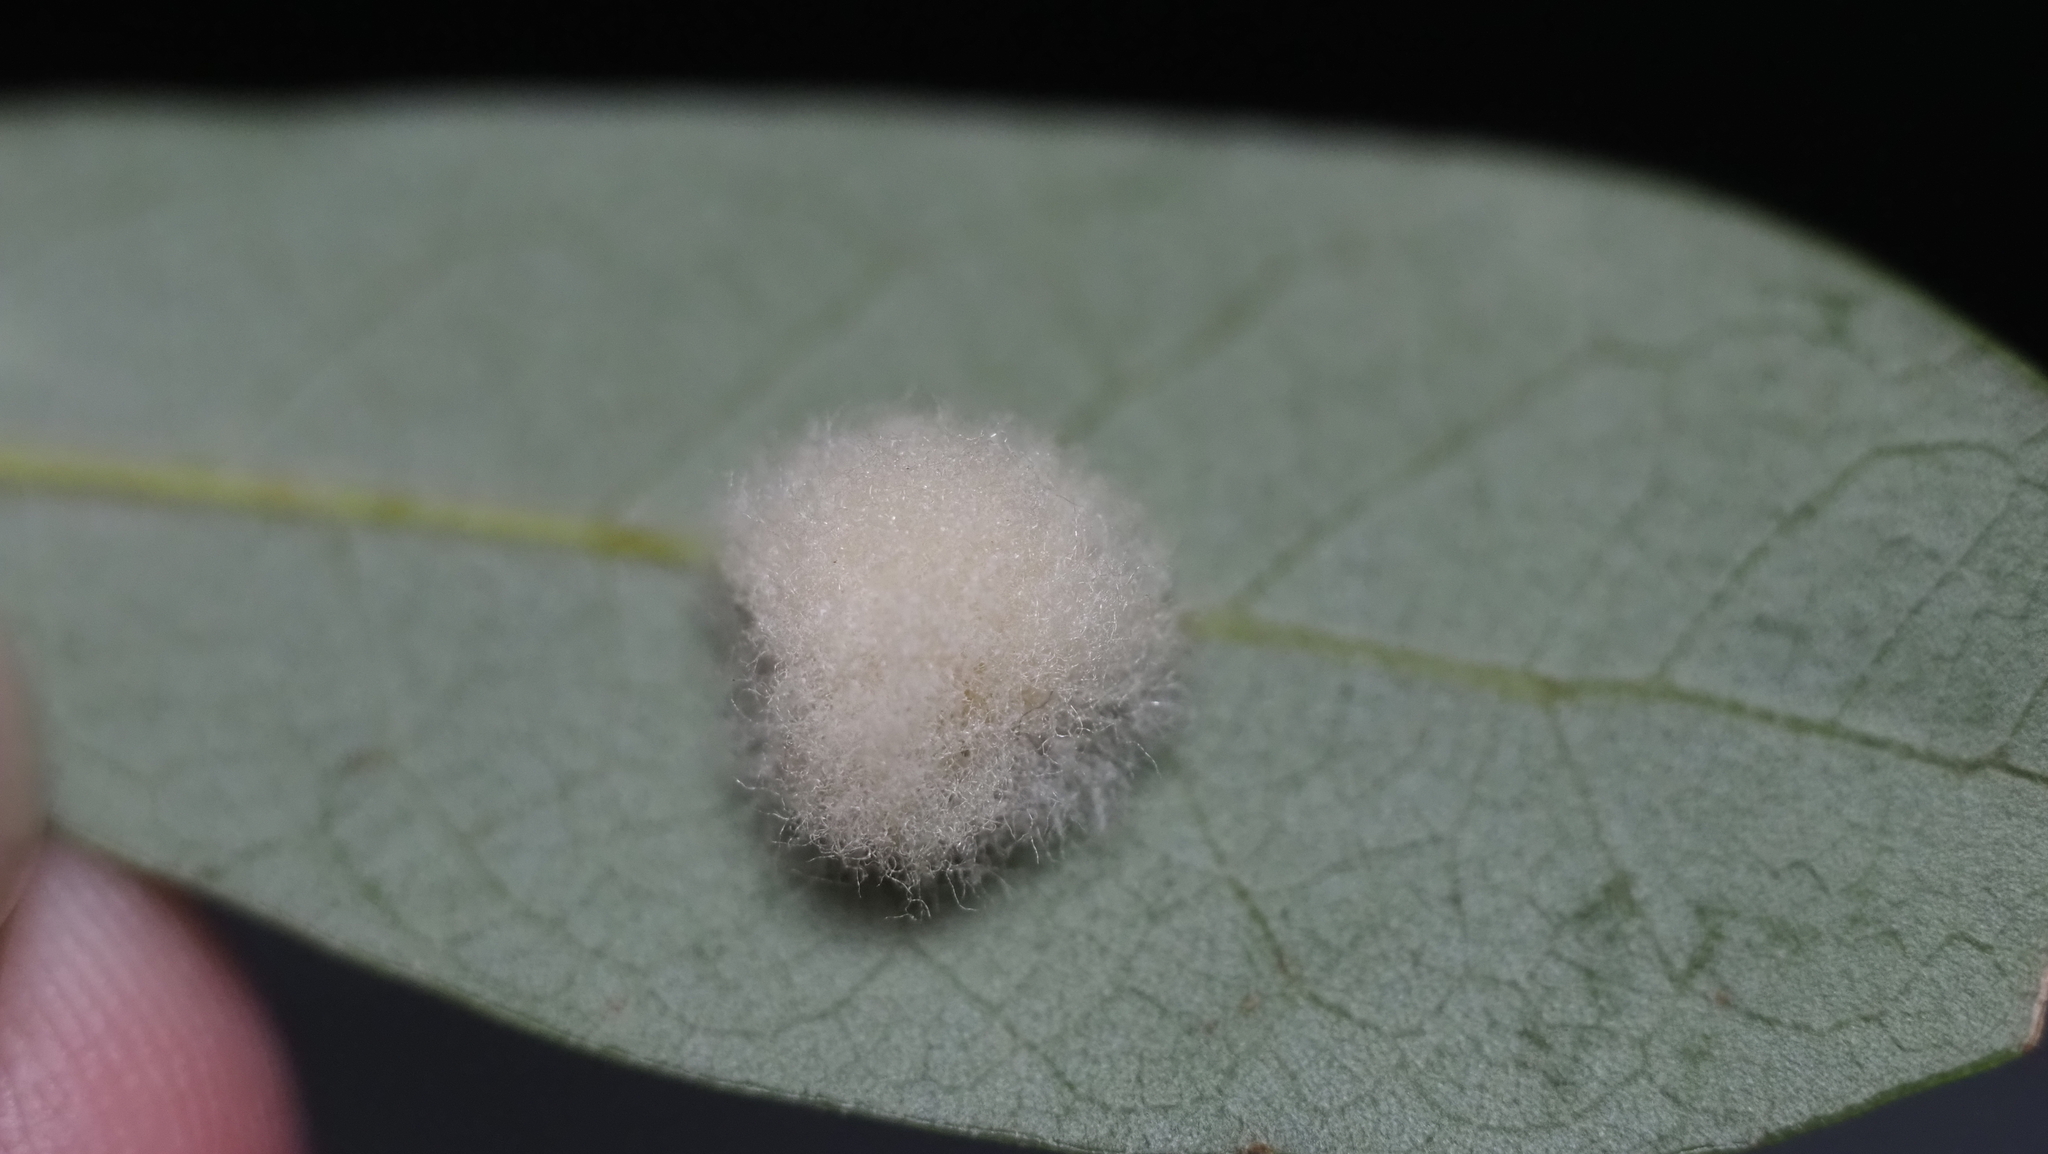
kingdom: Animalia
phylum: Arthropoda
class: Insecta
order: Hymenoptera
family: Cynipidae
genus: Andricus
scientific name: Andricus Druon quercuslanigerum
